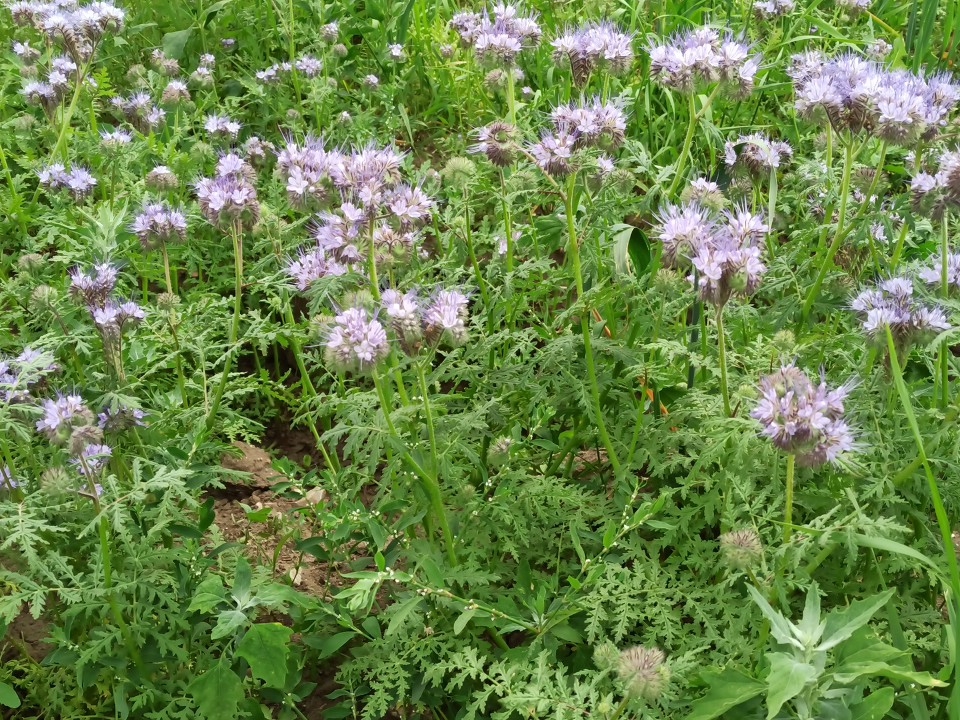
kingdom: Plantae
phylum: Tracheophyta
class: Magnoliopsida
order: Boraginales
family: Hydrophyllaceae
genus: Phacelia
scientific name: Phacelia tanacetifolia
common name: Phacelia
